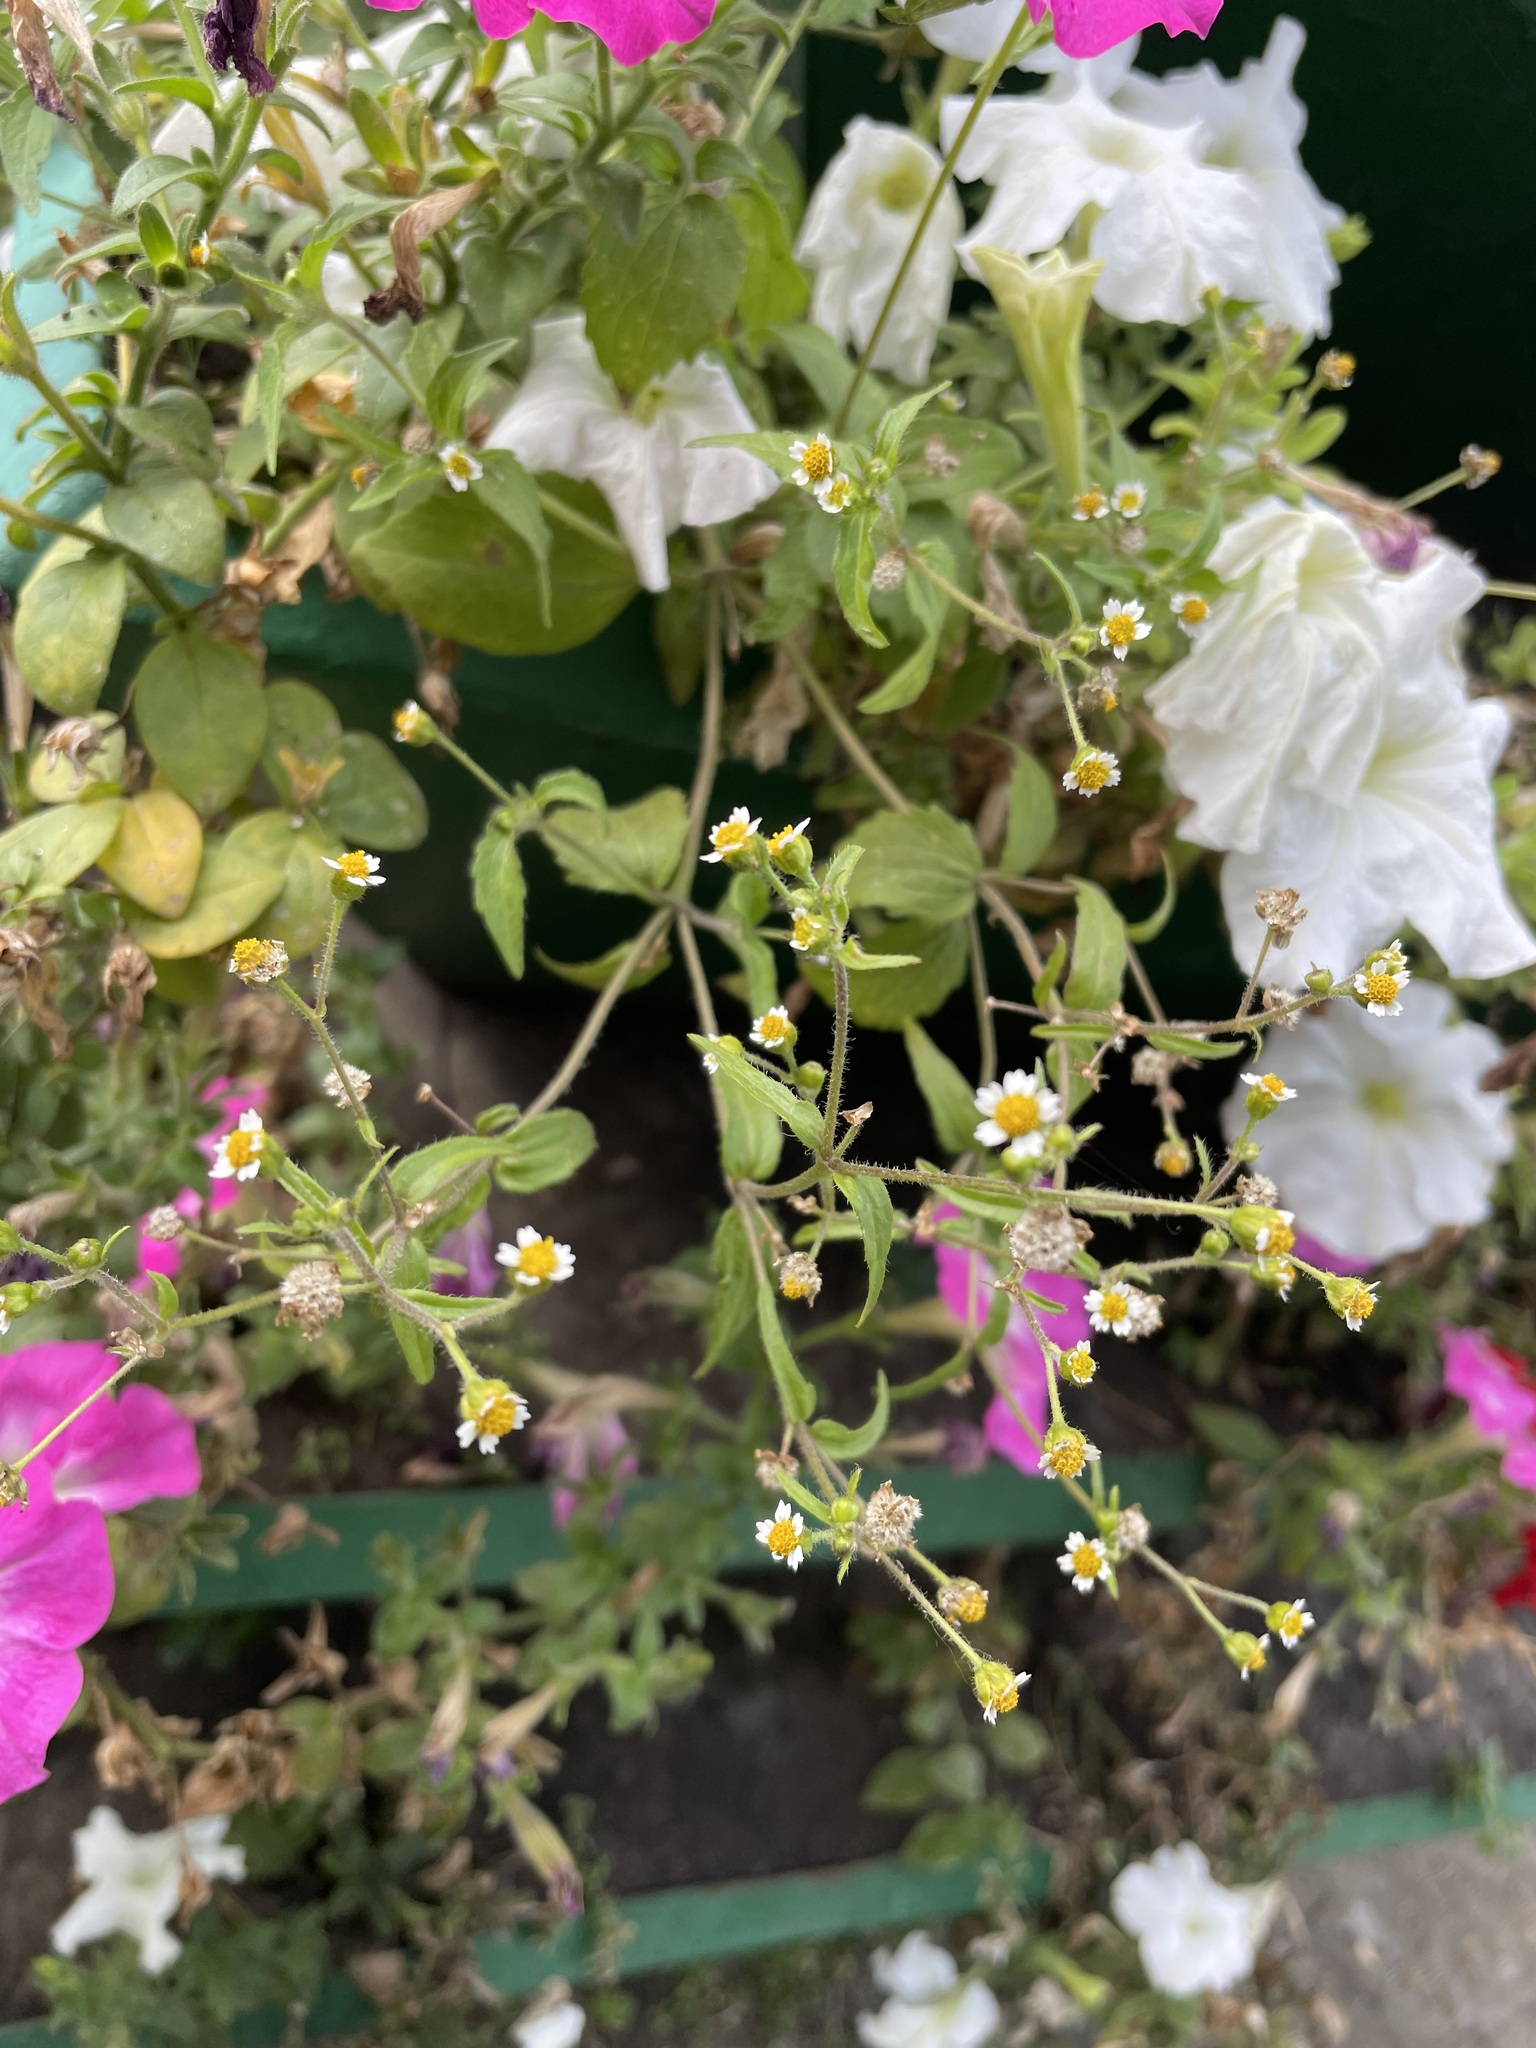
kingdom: Plantae
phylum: Tracheophyta
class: Magnoliopsida
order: Asterales
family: Asteraceae
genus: Galinsoga
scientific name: Galinsoga quadriradiata
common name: Shaggy soldier
